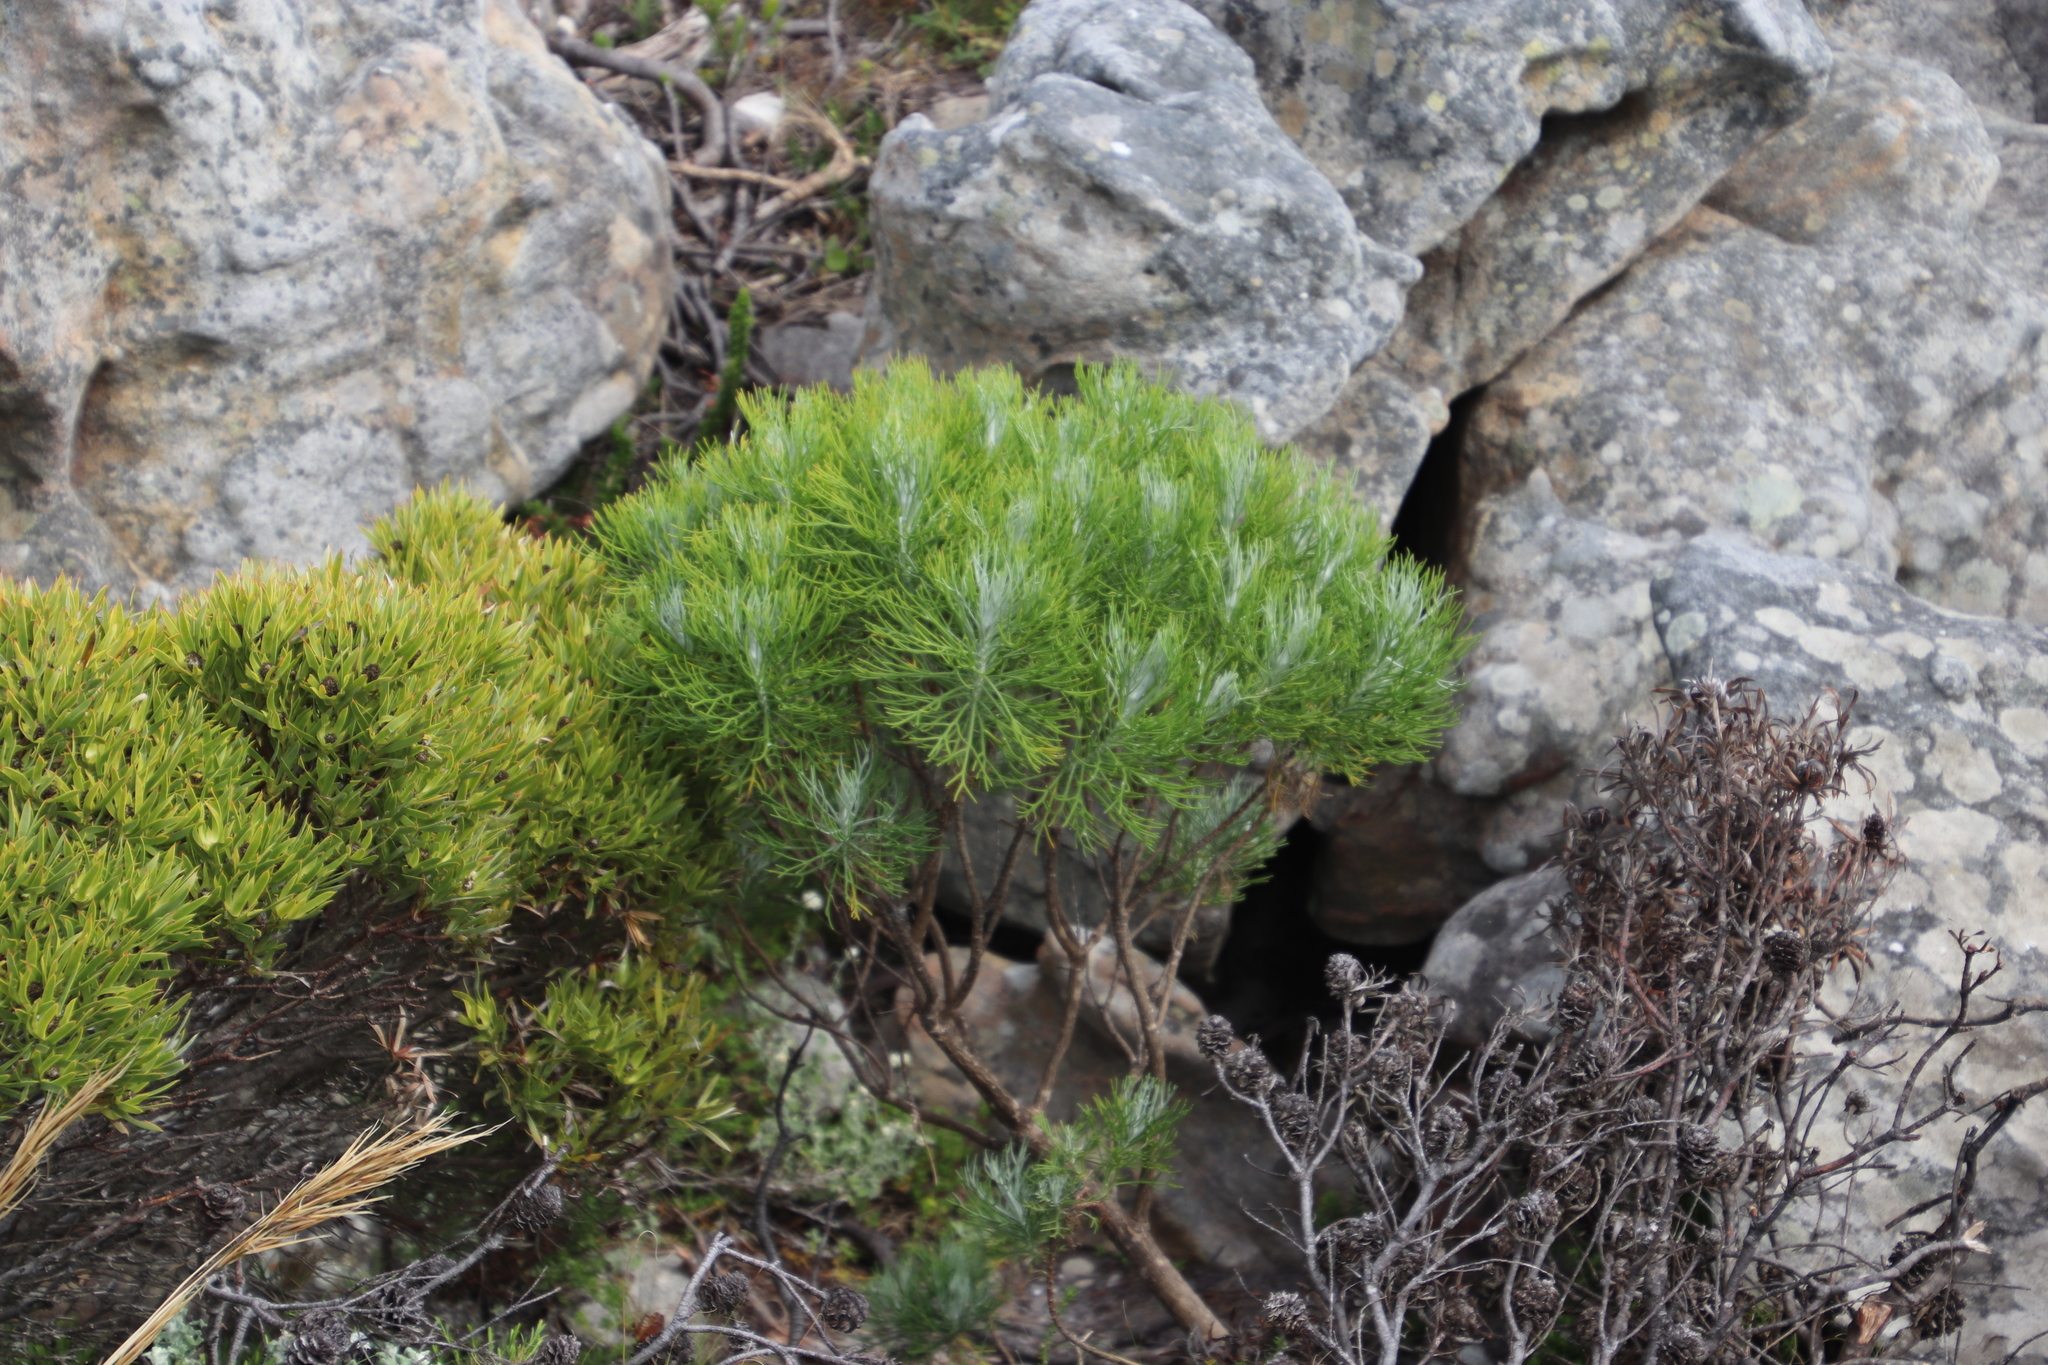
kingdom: Plantae
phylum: Tracheophyta
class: Magnoliopsida
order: Asterales
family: Asteraceae
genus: Athanasia
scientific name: Athanasia crithmifolia
